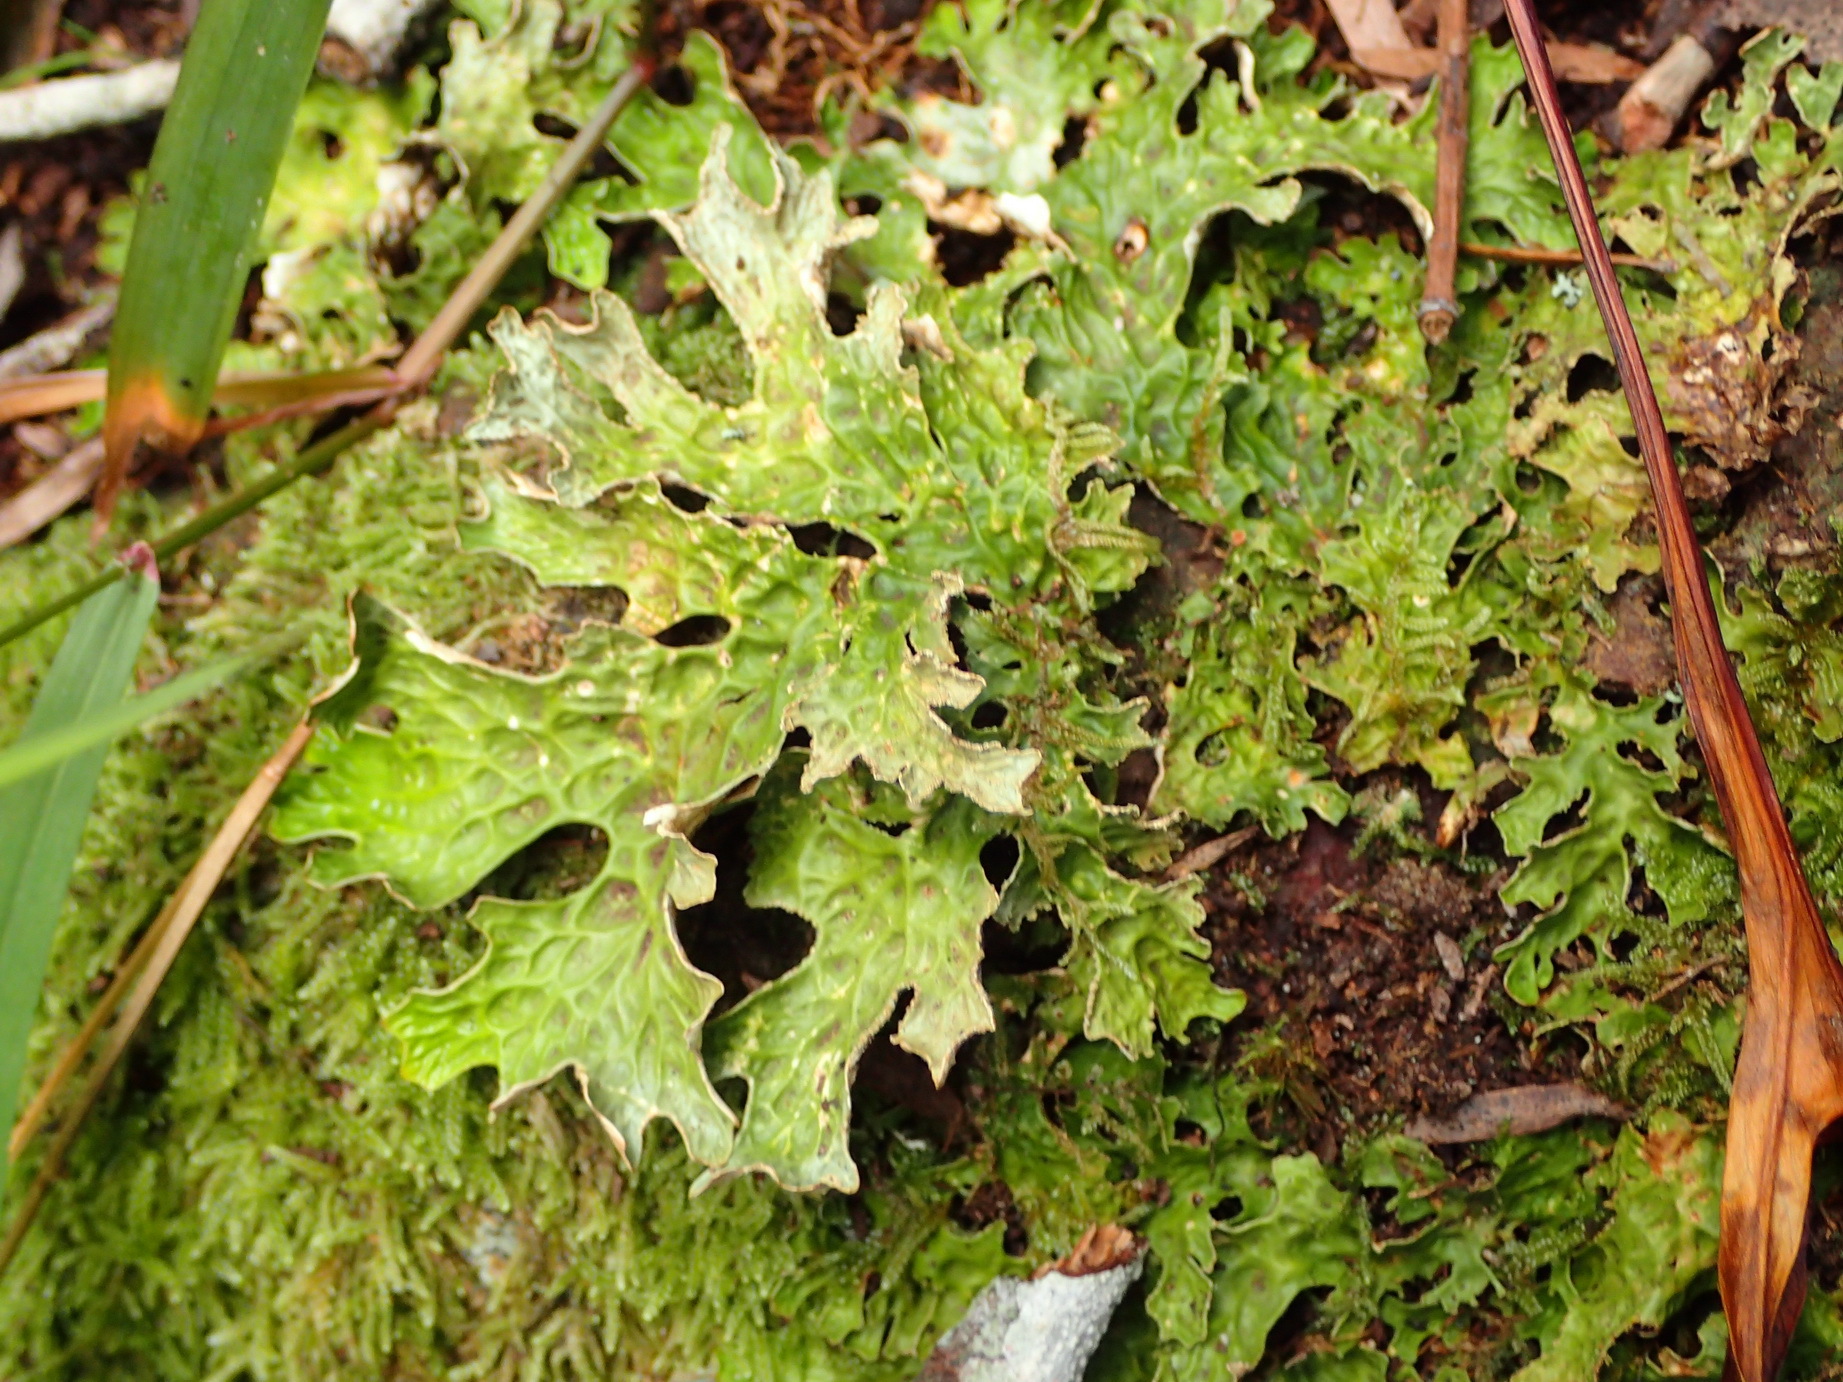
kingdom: Fungi
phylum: Ascomycota
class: Lecanoromycetes
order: Peltigerales
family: Lobariaceae
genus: Lobaria
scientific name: Lobaria pulmonaria
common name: Lungwort
